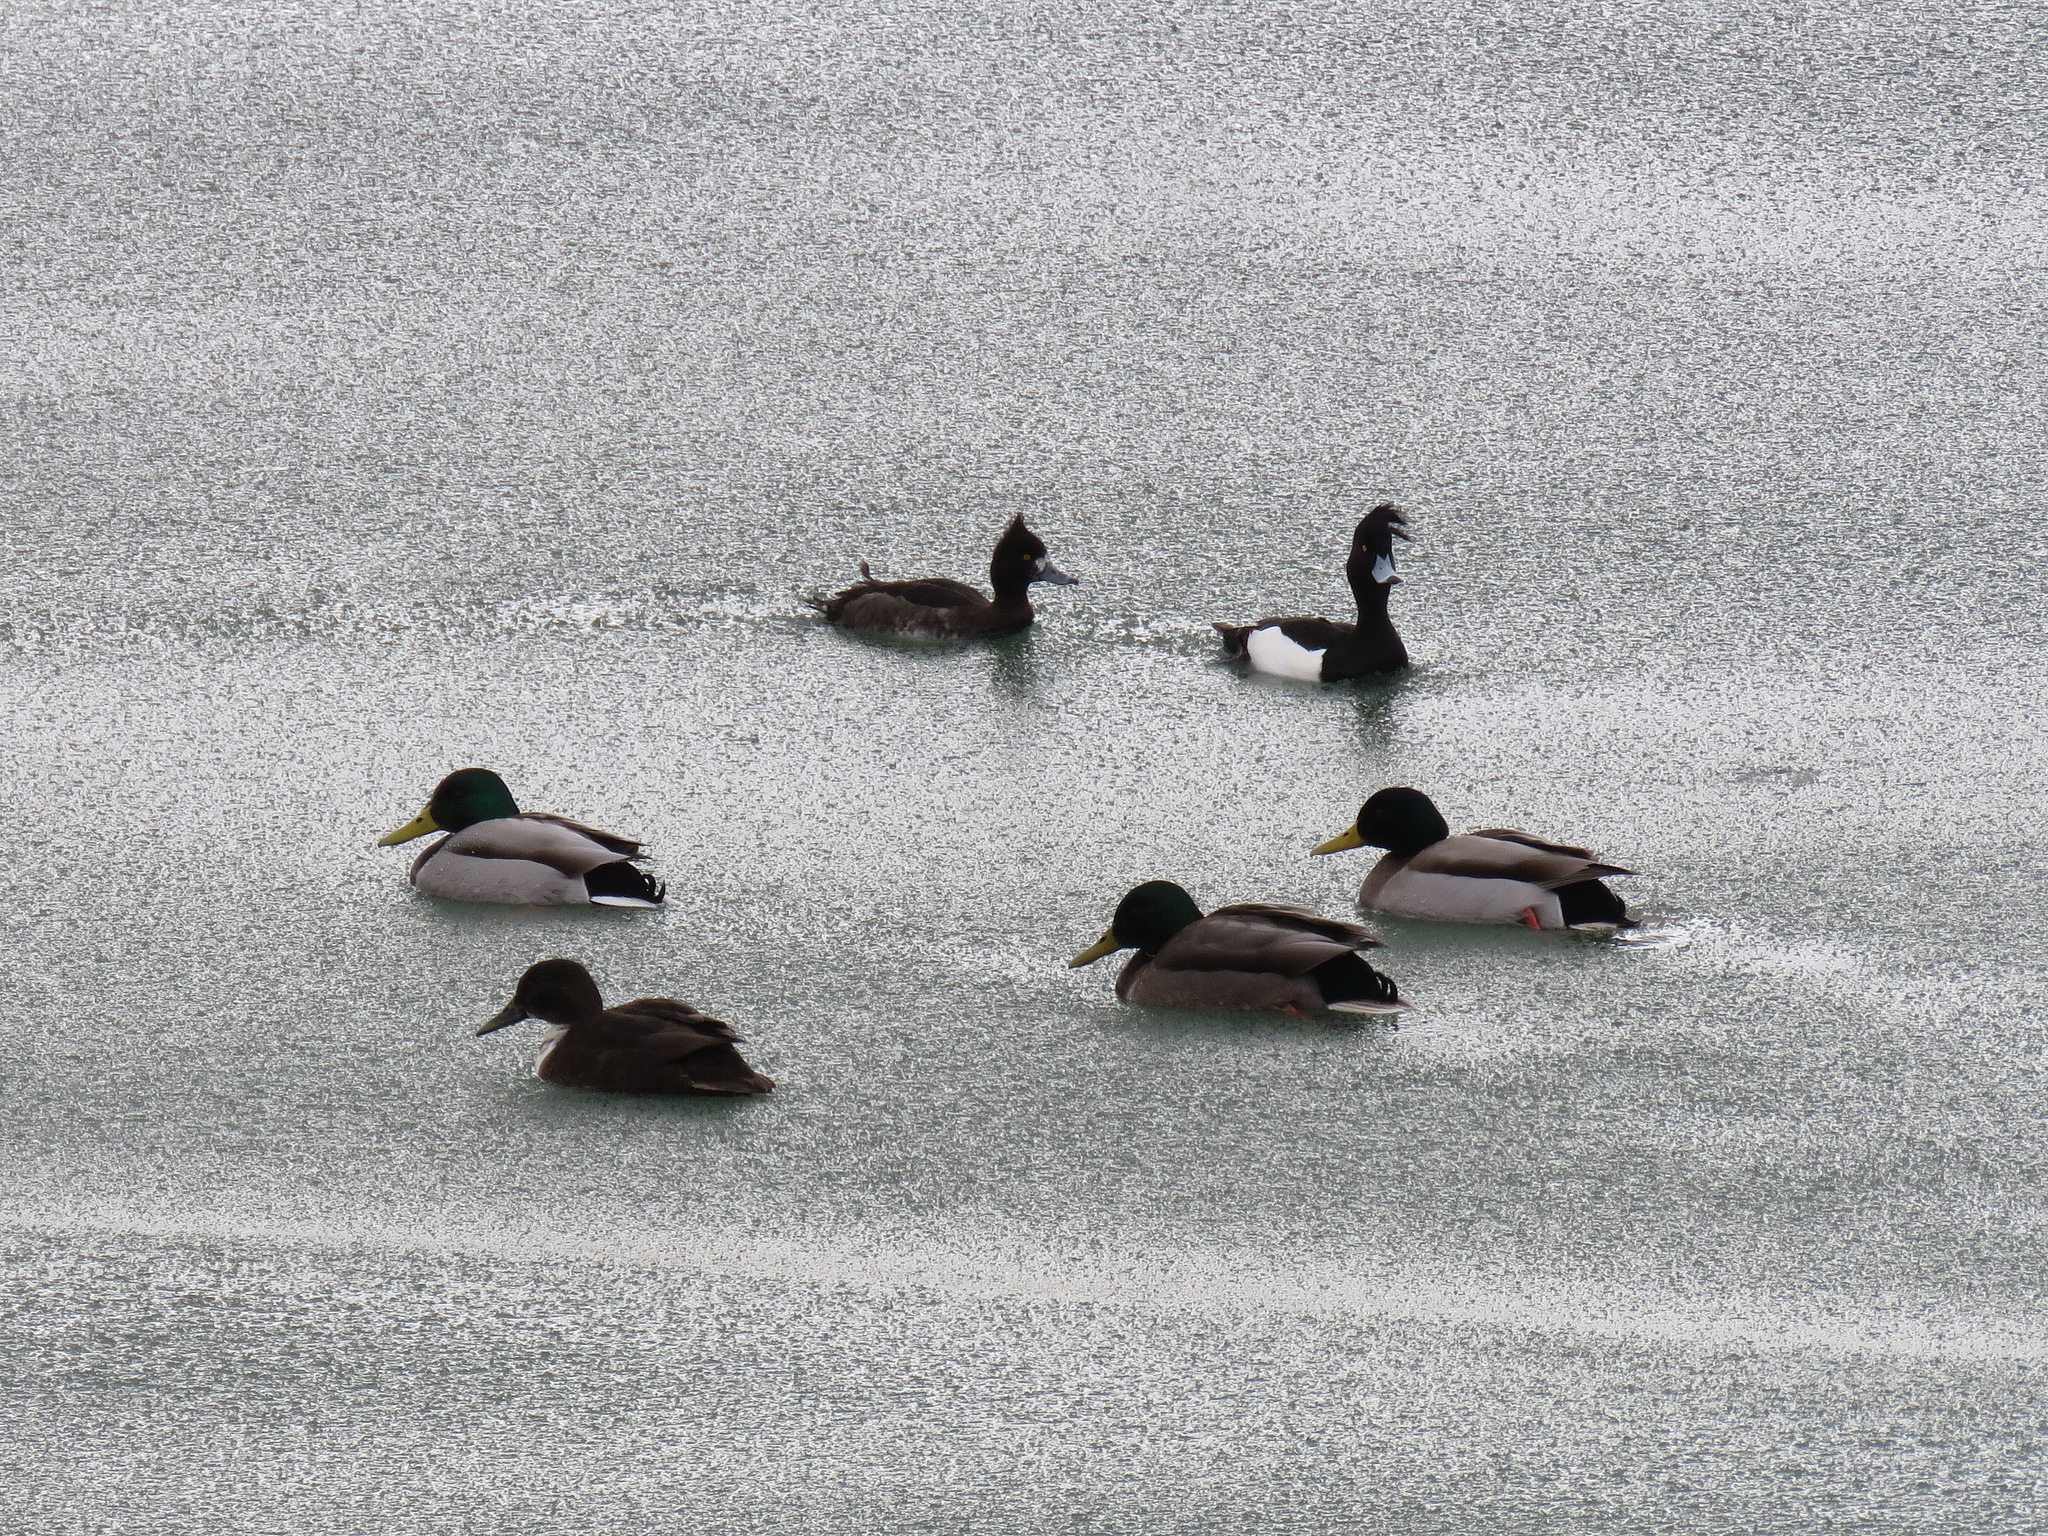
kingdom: Animalia
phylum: Chordata
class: Aves
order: Anseriformes
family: Anatidae
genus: Anas
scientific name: Anas platyrhynchos
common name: Mallard
